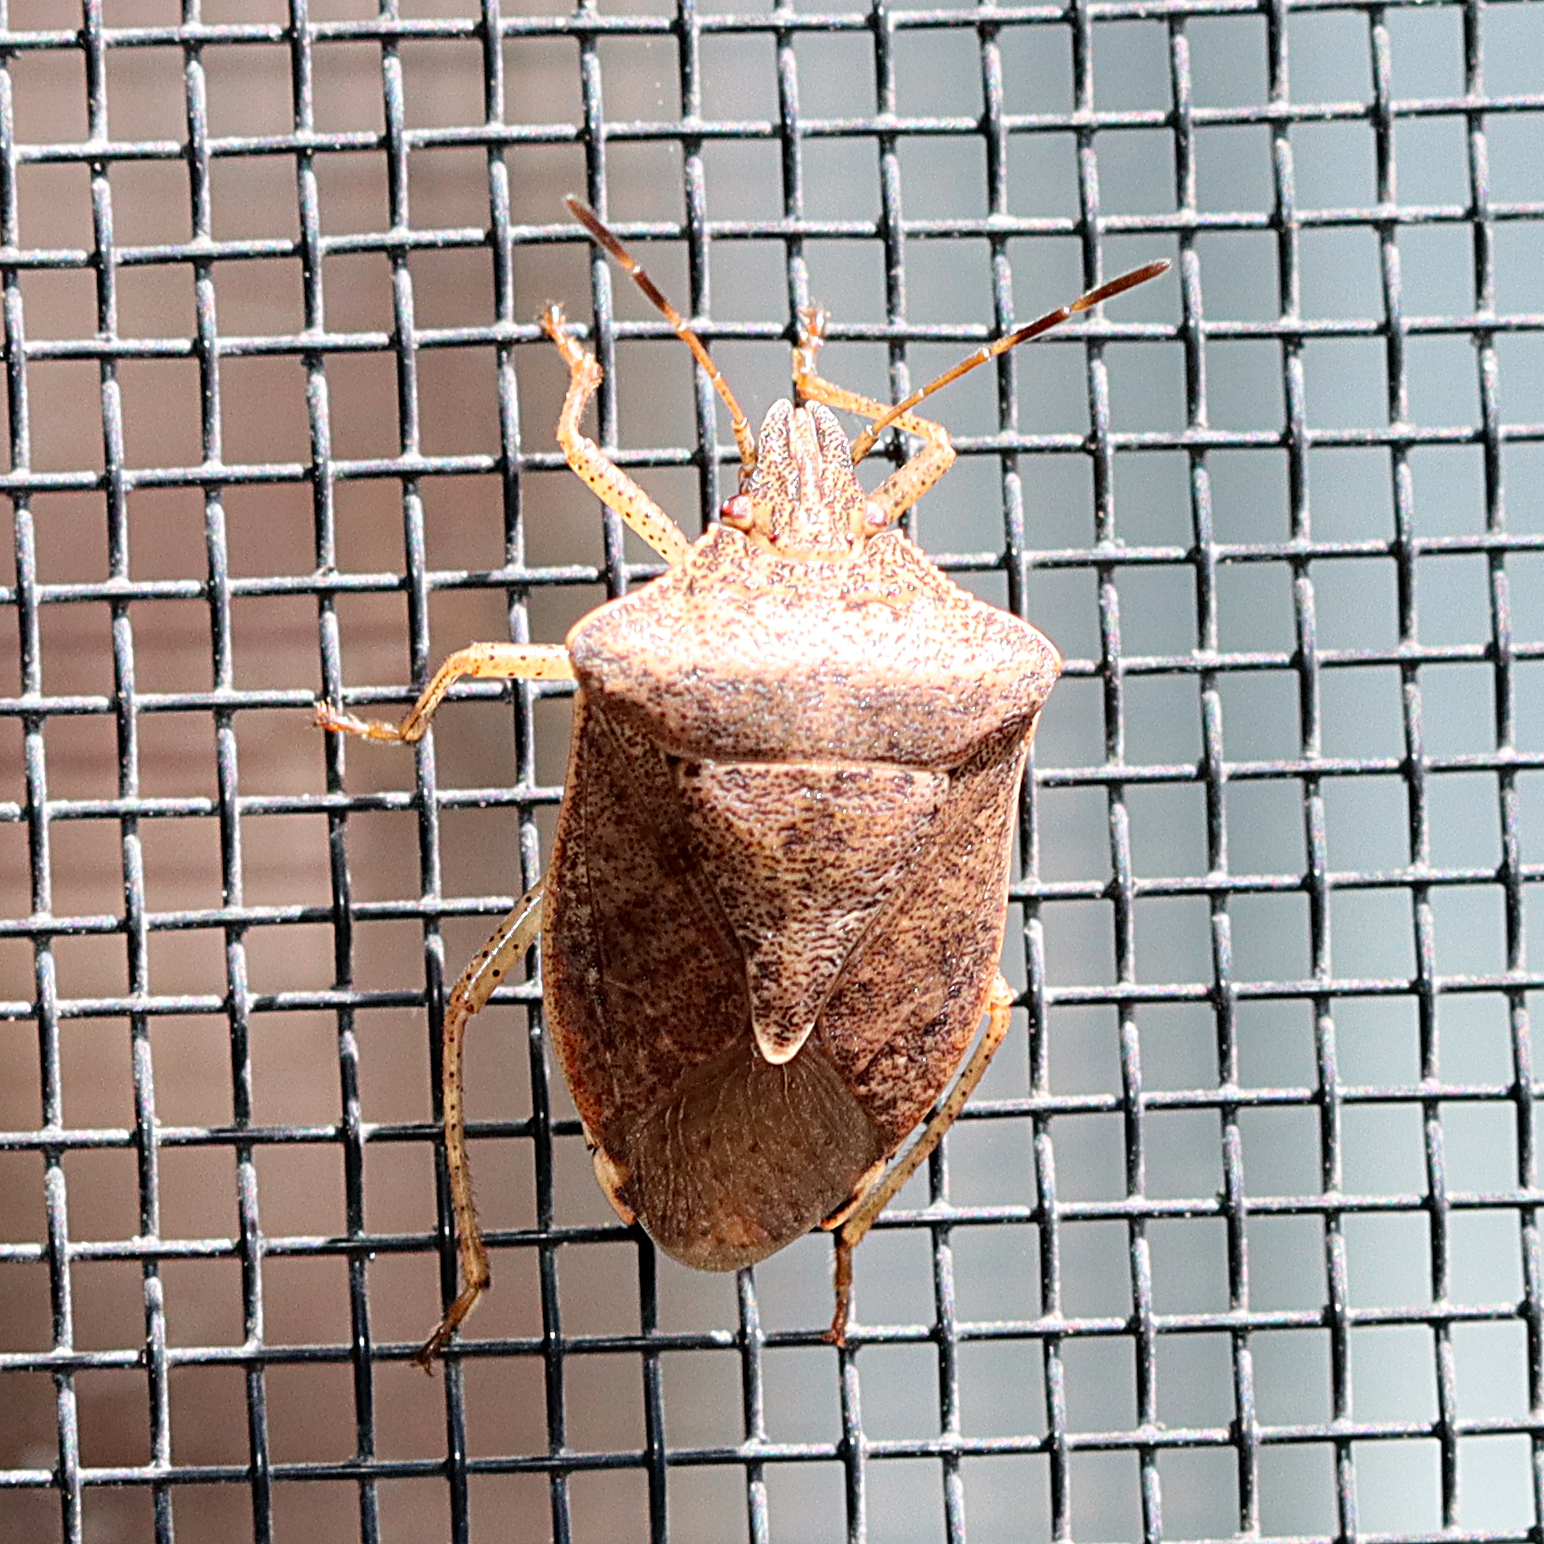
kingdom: Animalia
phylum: Arthropoda
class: Insecta
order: Hemiptera
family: Pentatomidae
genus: Euschistus
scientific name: Euschistus servus
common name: Brown stink bug
